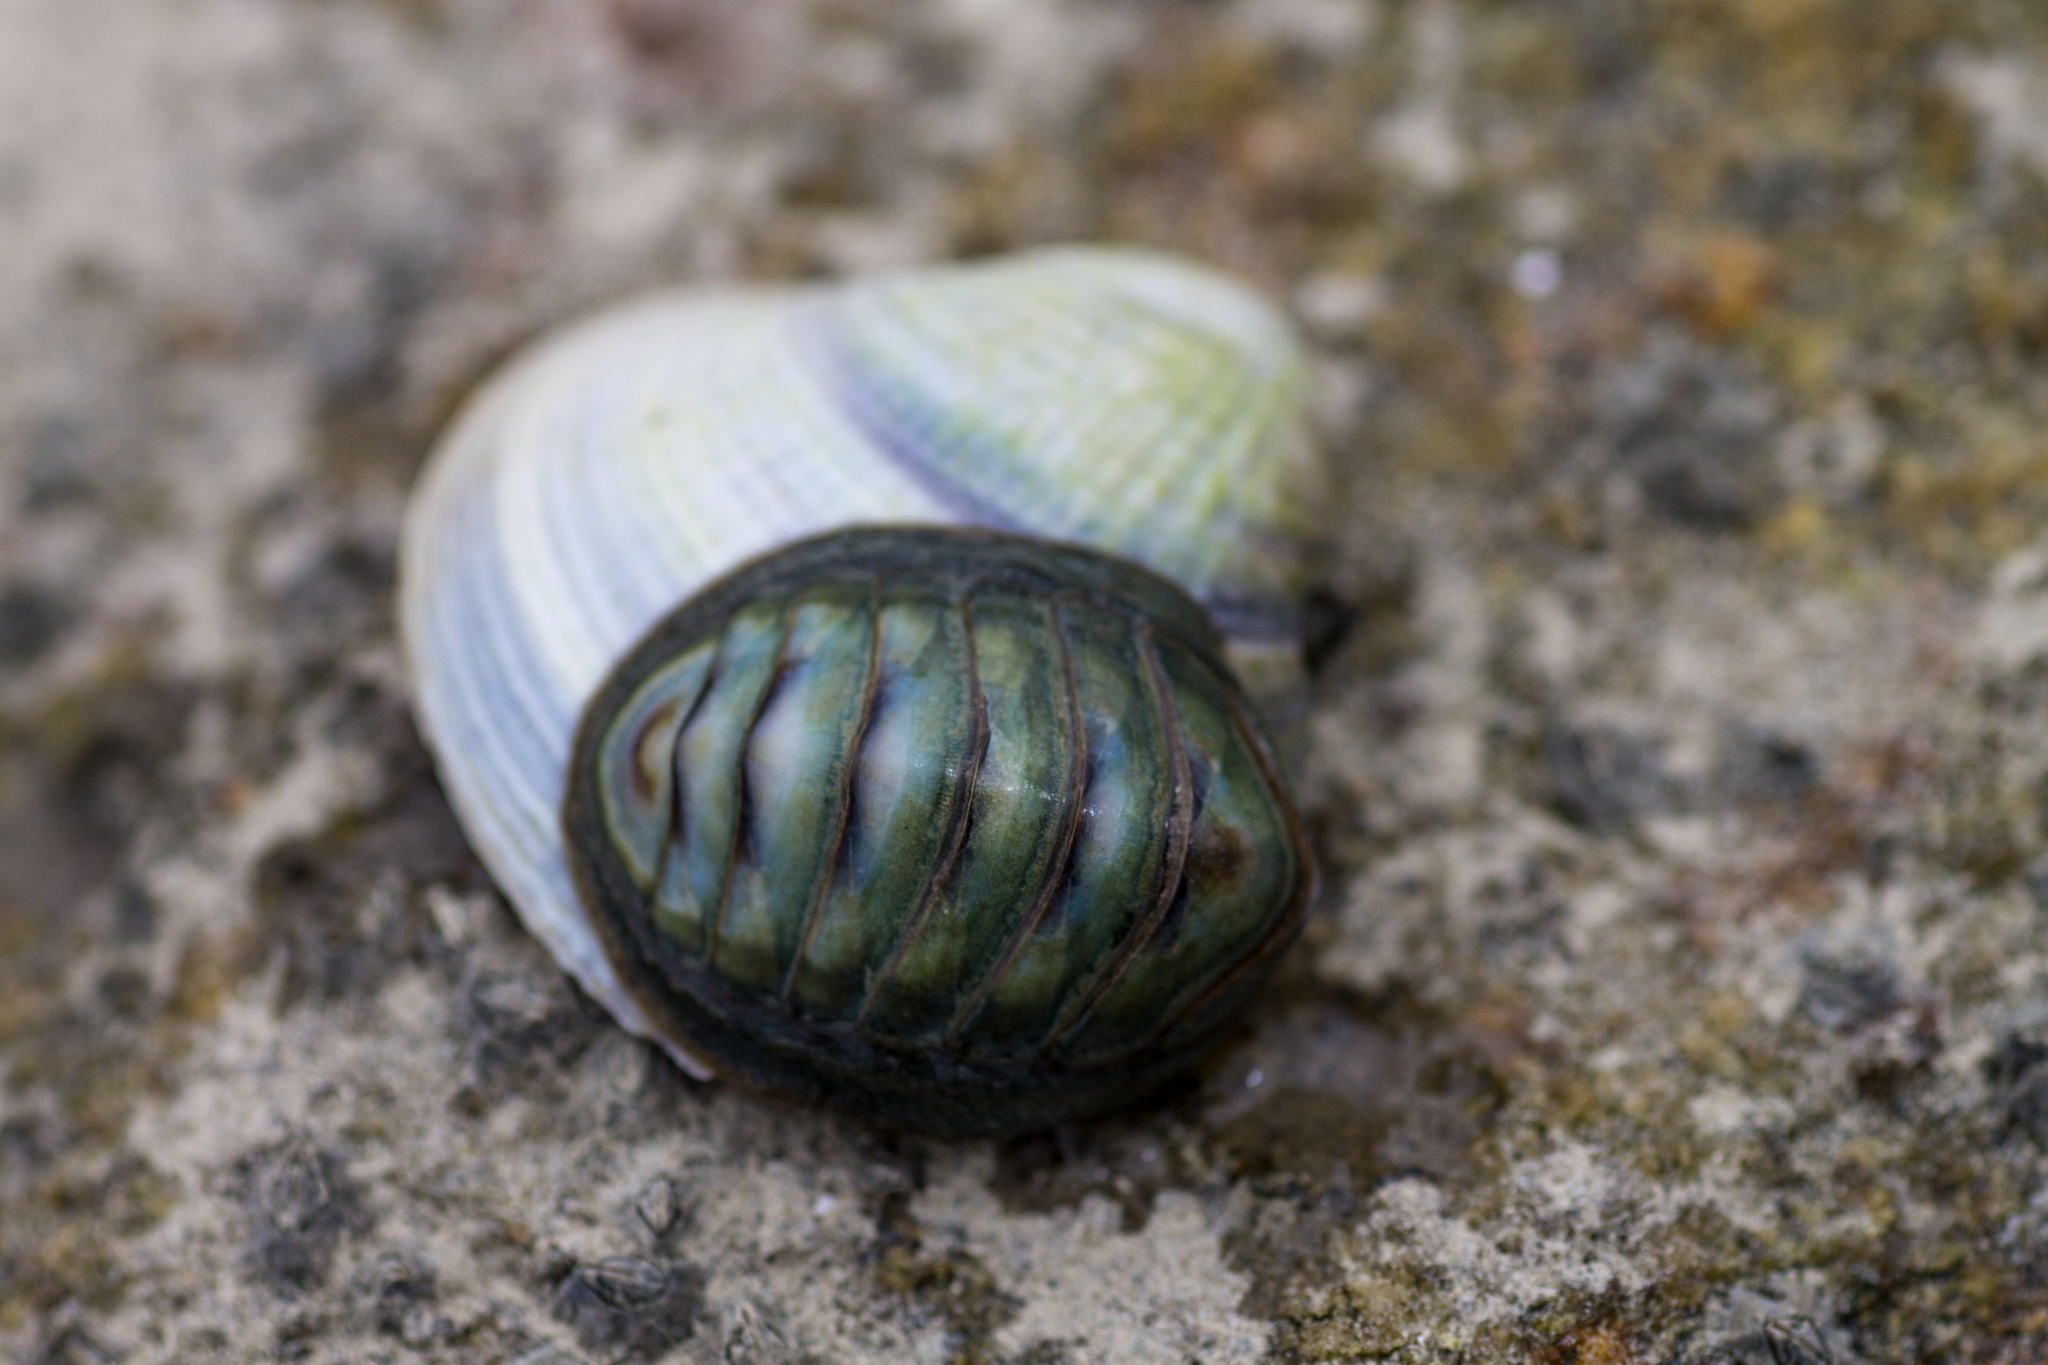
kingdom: Animalia
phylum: Mollusca
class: Polyplacophora
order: Chitonida
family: Chitonidae
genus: Chiton
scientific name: Chiton glaucus
